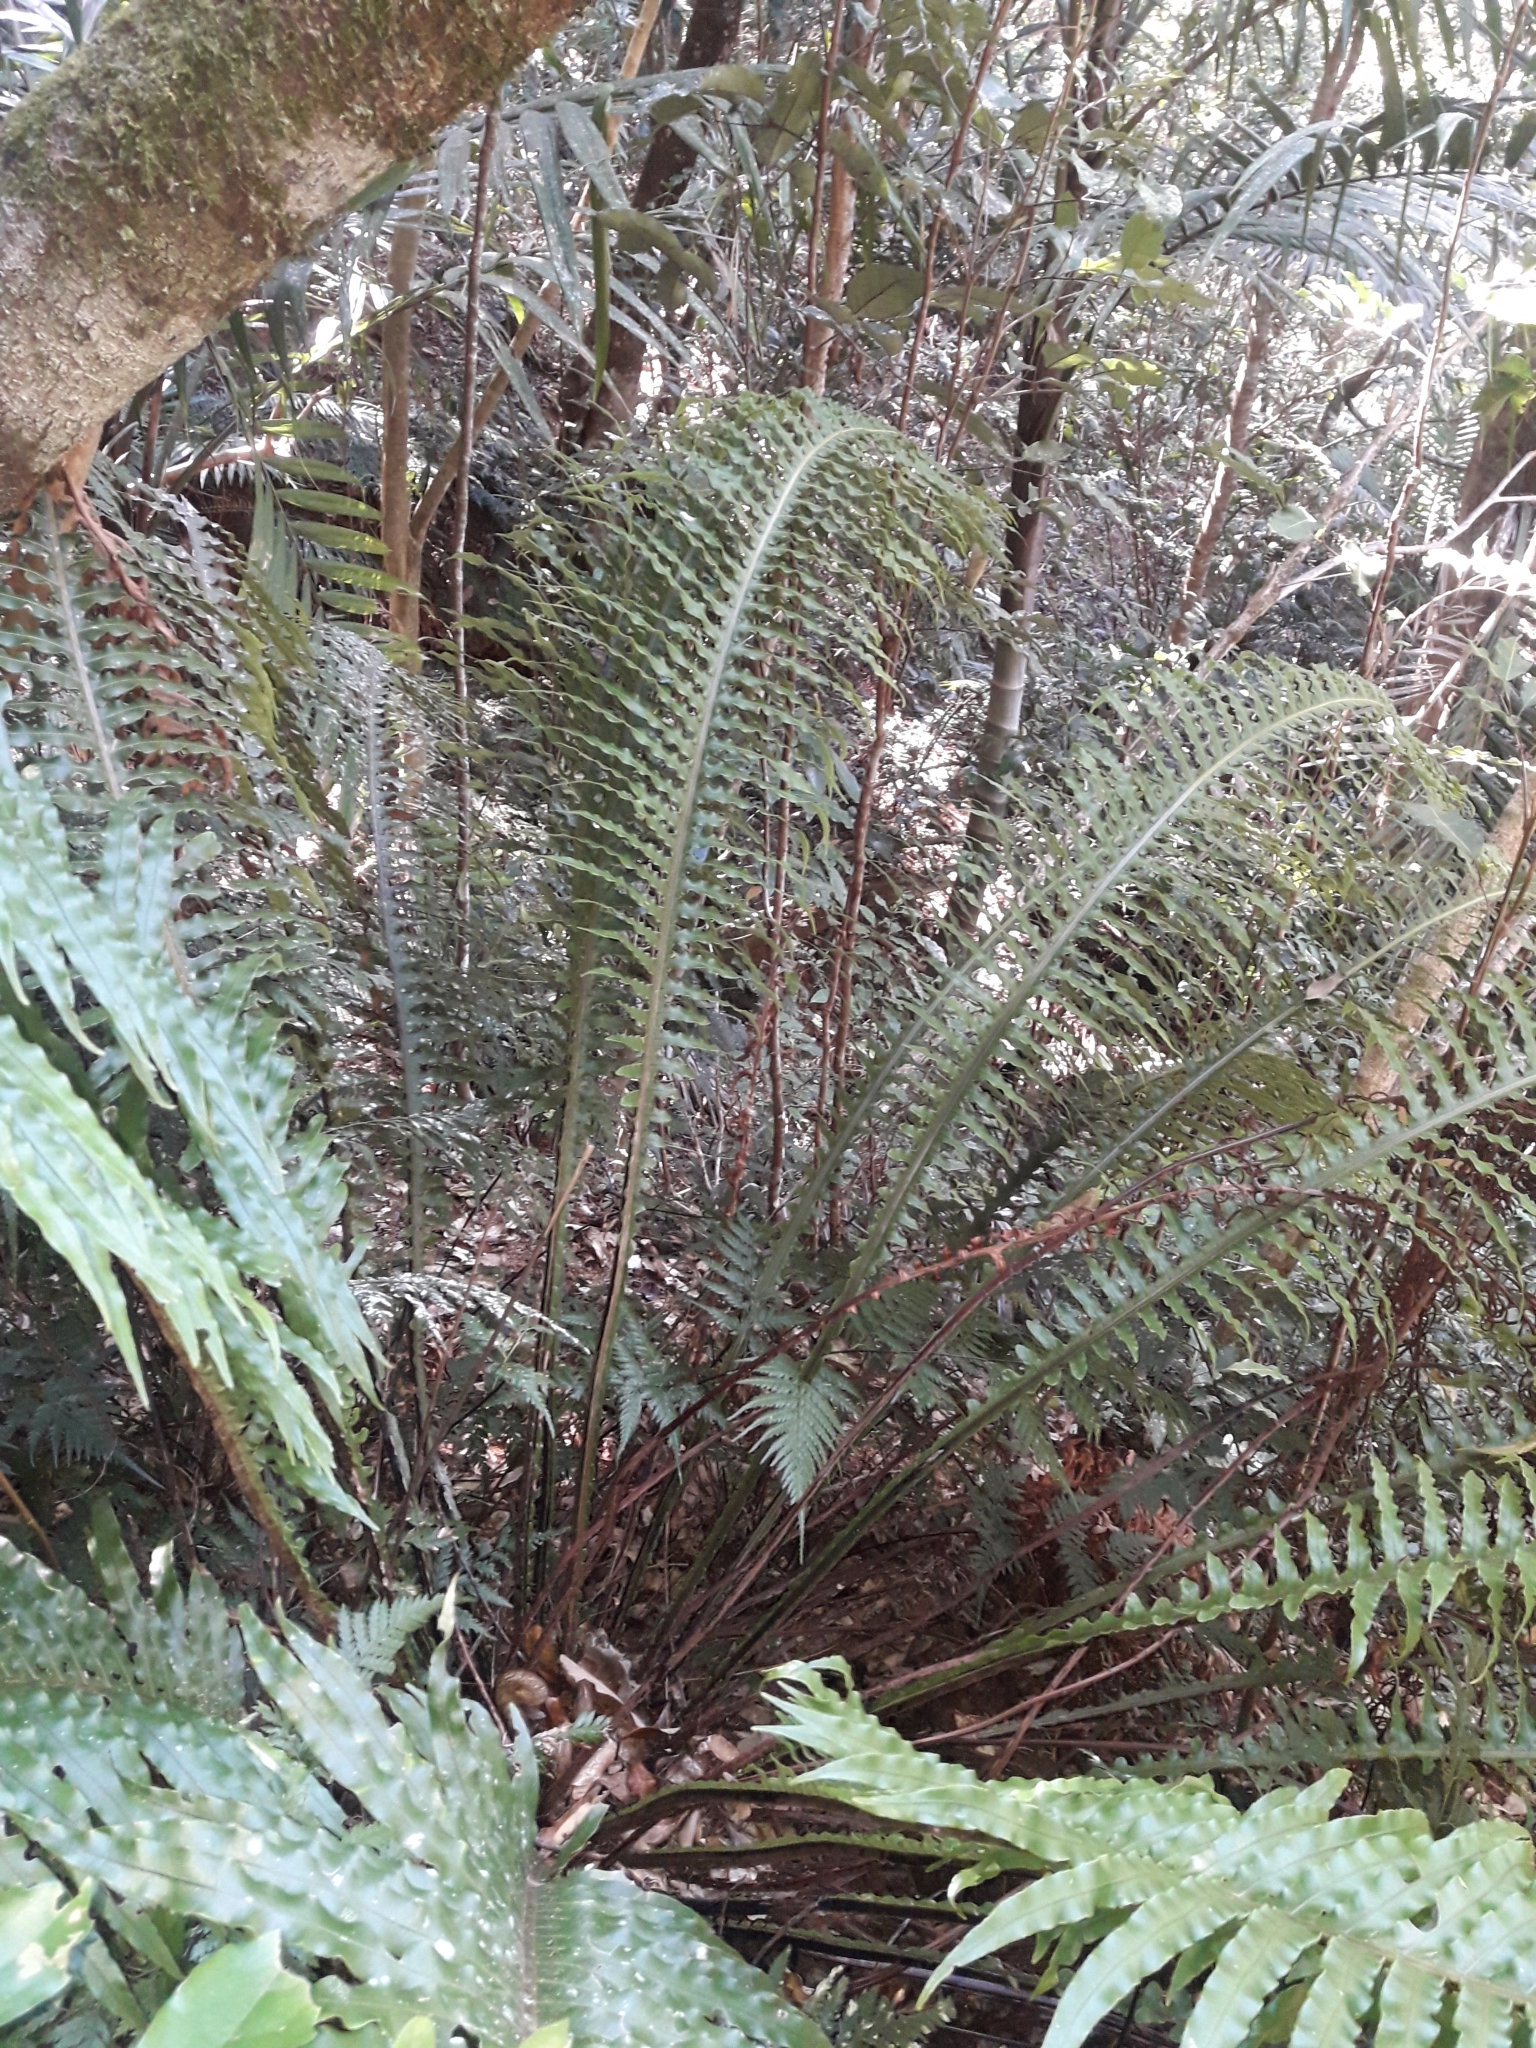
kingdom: Plantae
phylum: Tracheophyta
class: Polypodiopsida
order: Polypodiales
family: Blechnaceae
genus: Lomaria
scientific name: Lomaria oceanica
